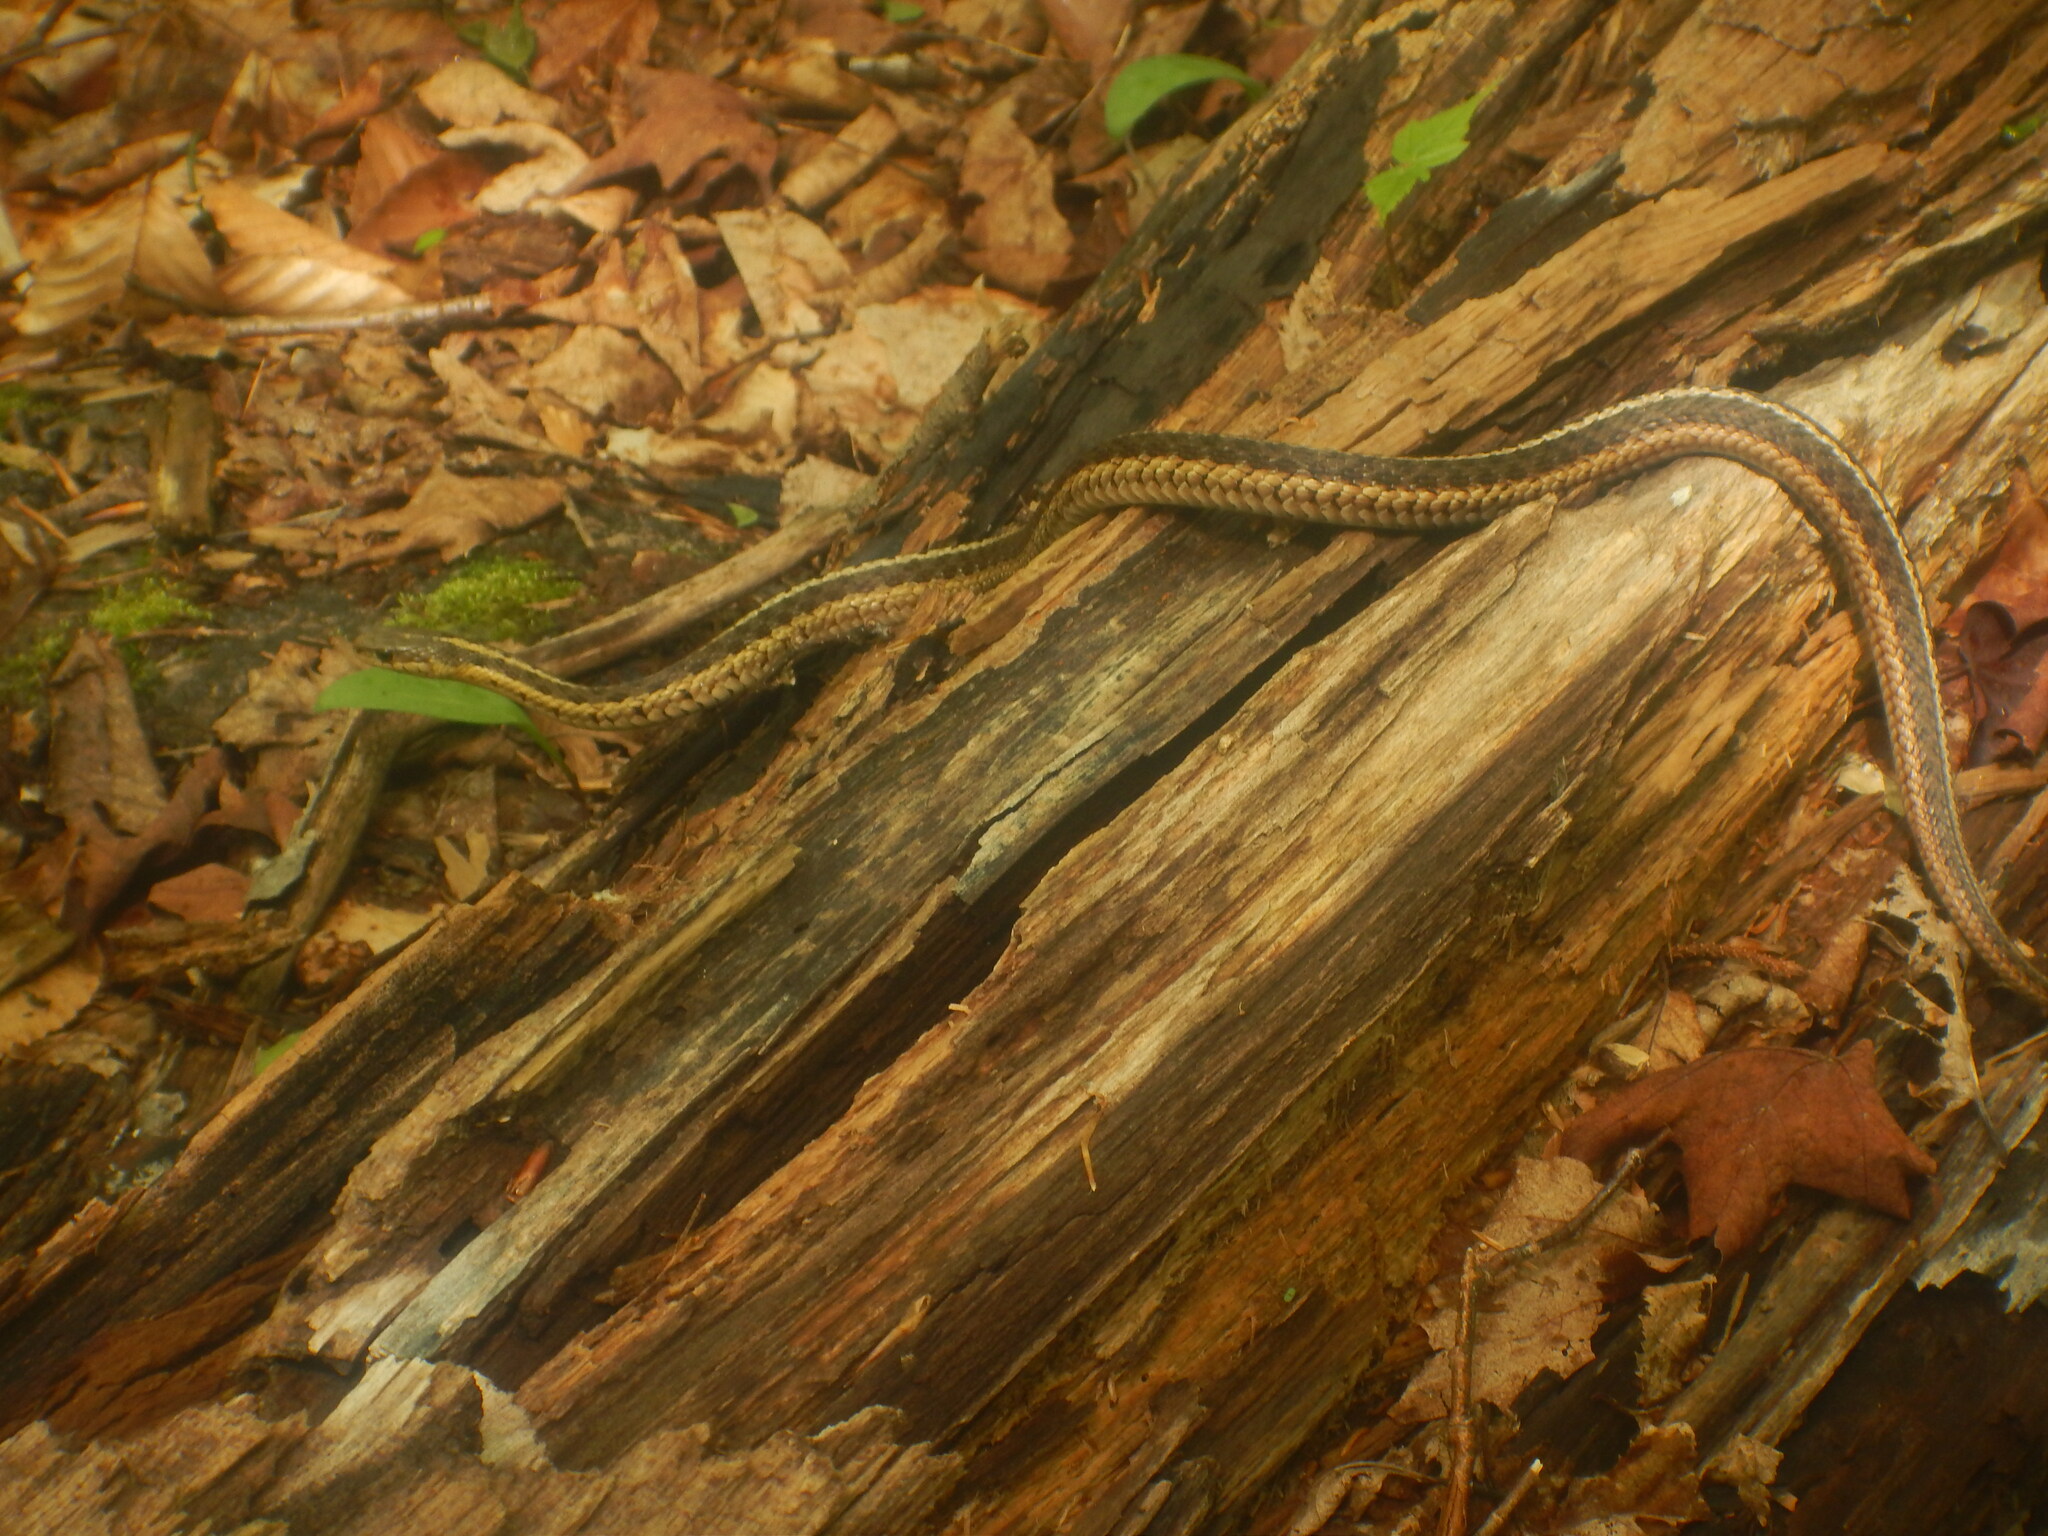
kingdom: Animalia
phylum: Chordata
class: Squamata
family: Colubridae
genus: Thamnophis
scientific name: Thamnophis sirtalis
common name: Common garter snake
